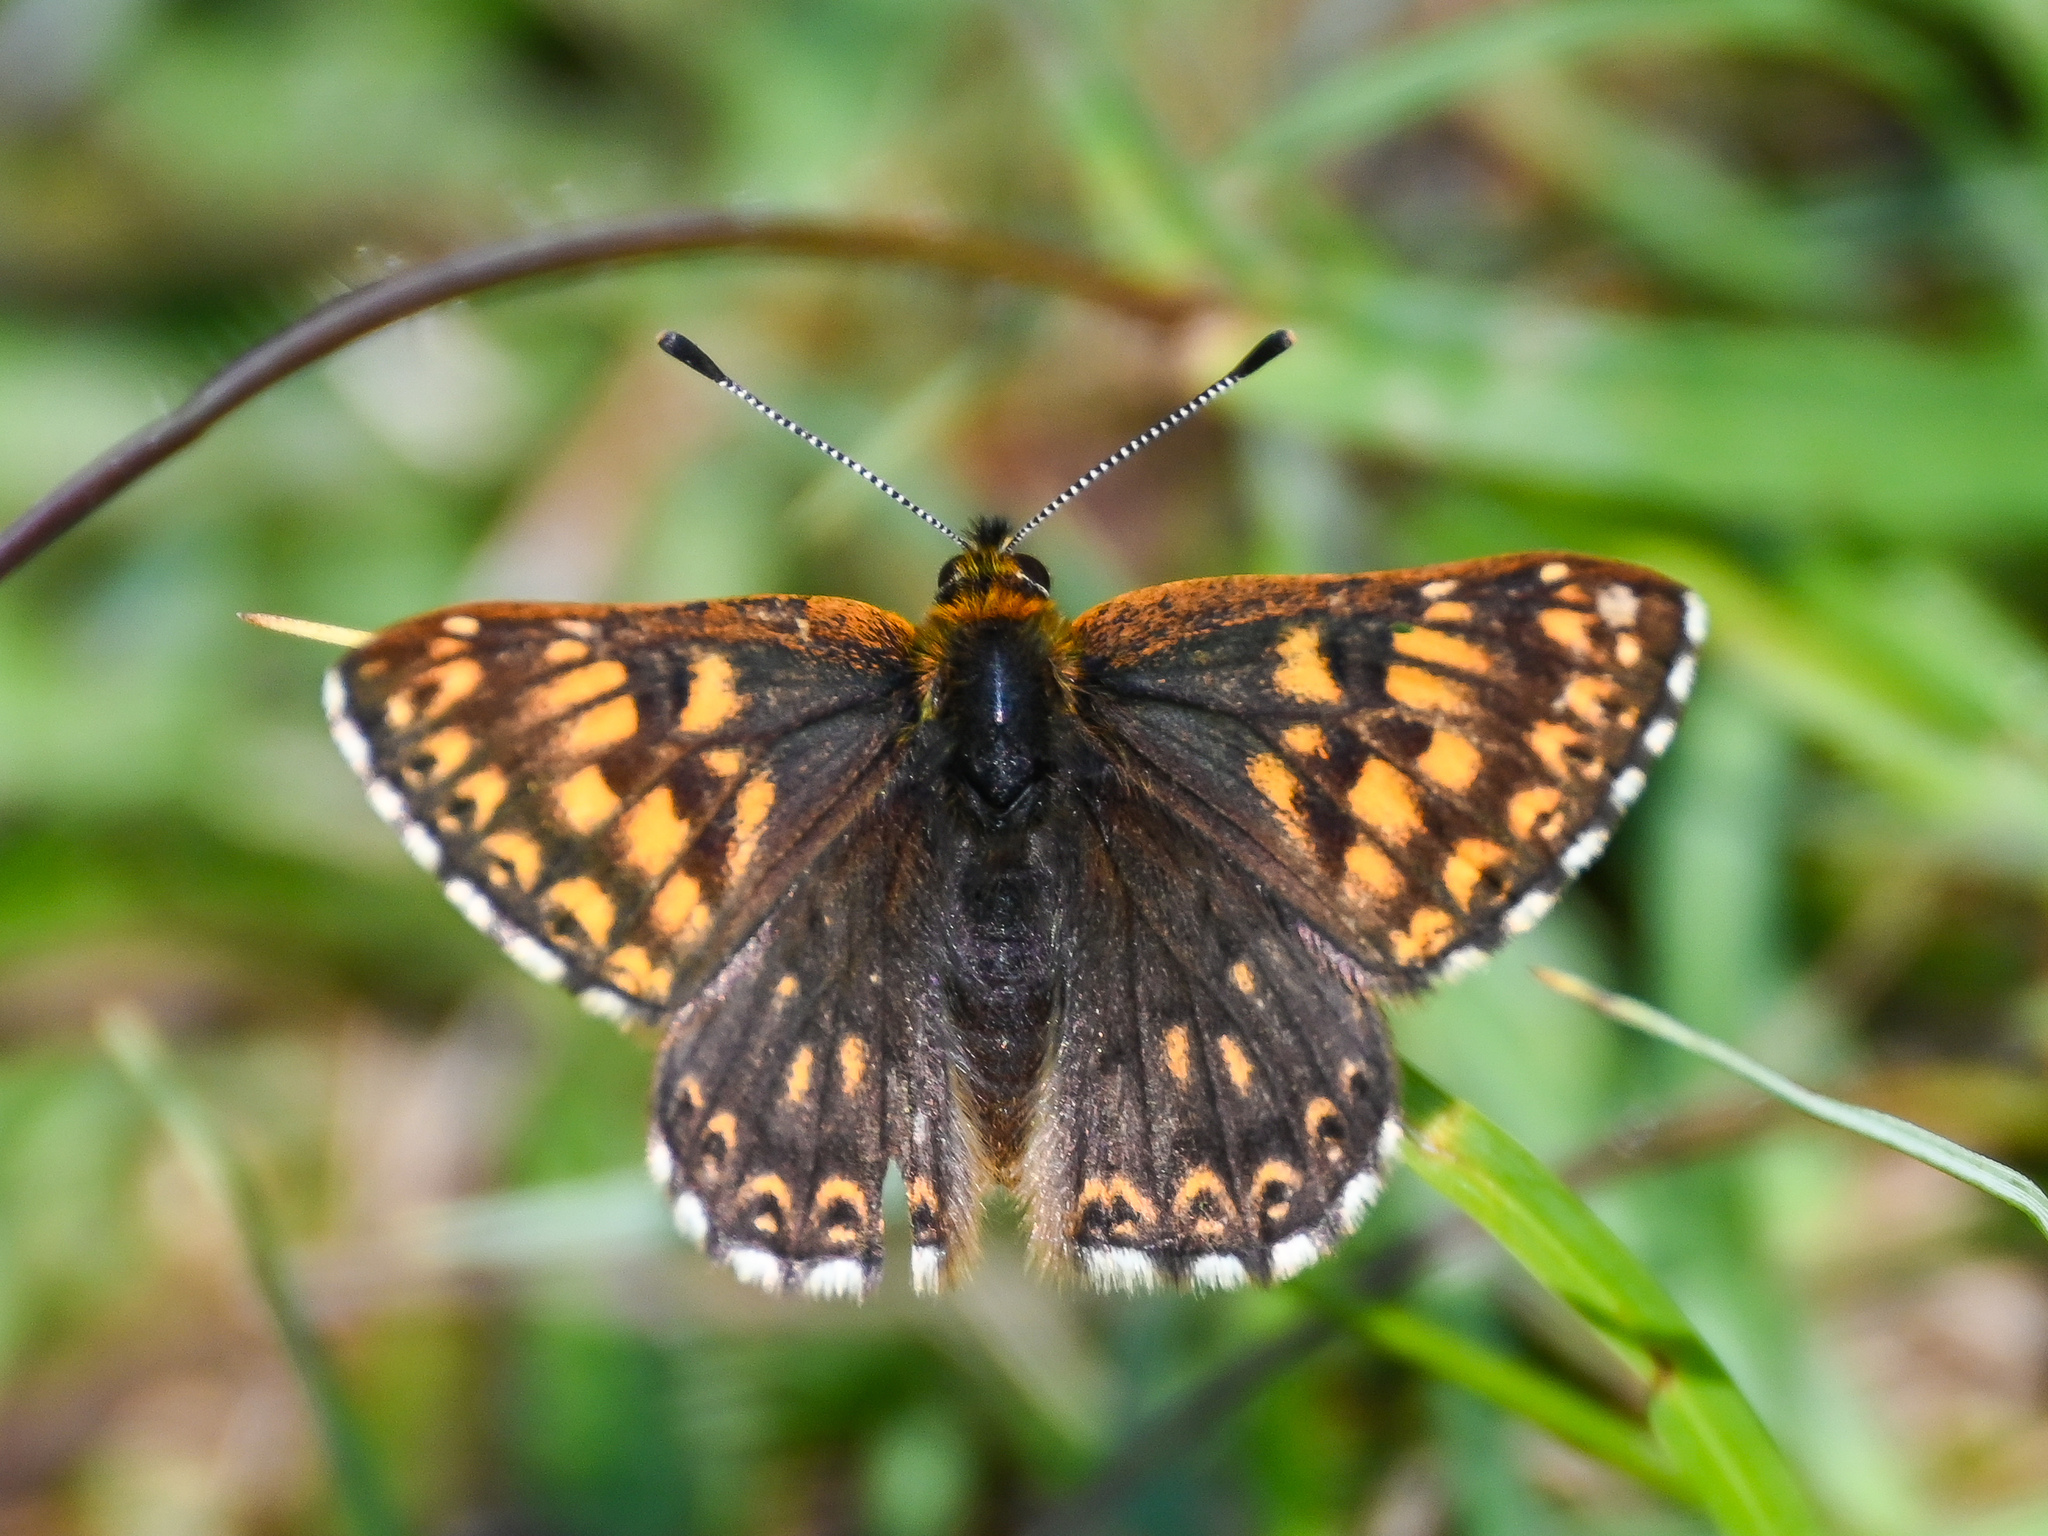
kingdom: Animalia
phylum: Arthropoda
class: Insecta
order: Lepidoptera
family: Riodinidae
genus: Hamearis
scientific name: Hamearis lucina
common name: Duke of burgundy fritillary
